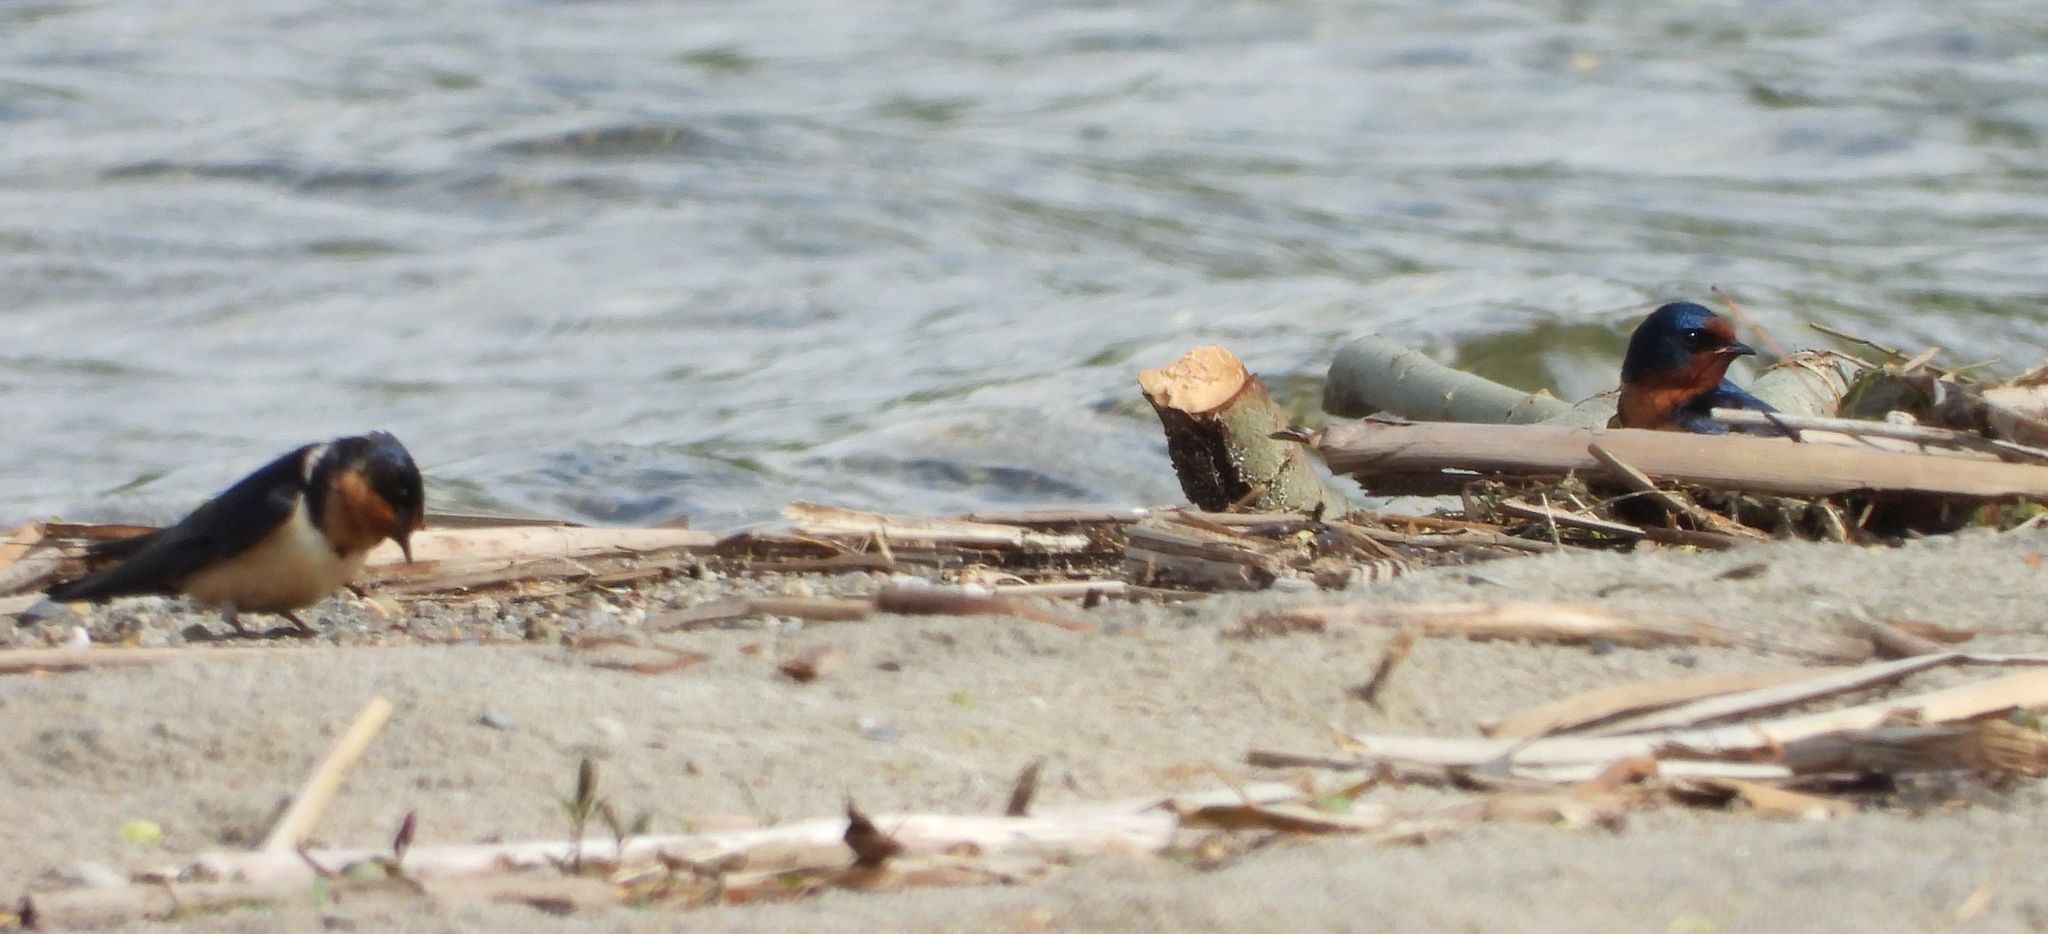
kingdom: Animalia
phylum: Chordata
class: Aves
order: Passeriformes
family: Hirundinidae
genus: Hirundo
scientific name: Hirundo rustica
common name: Barn swallow
